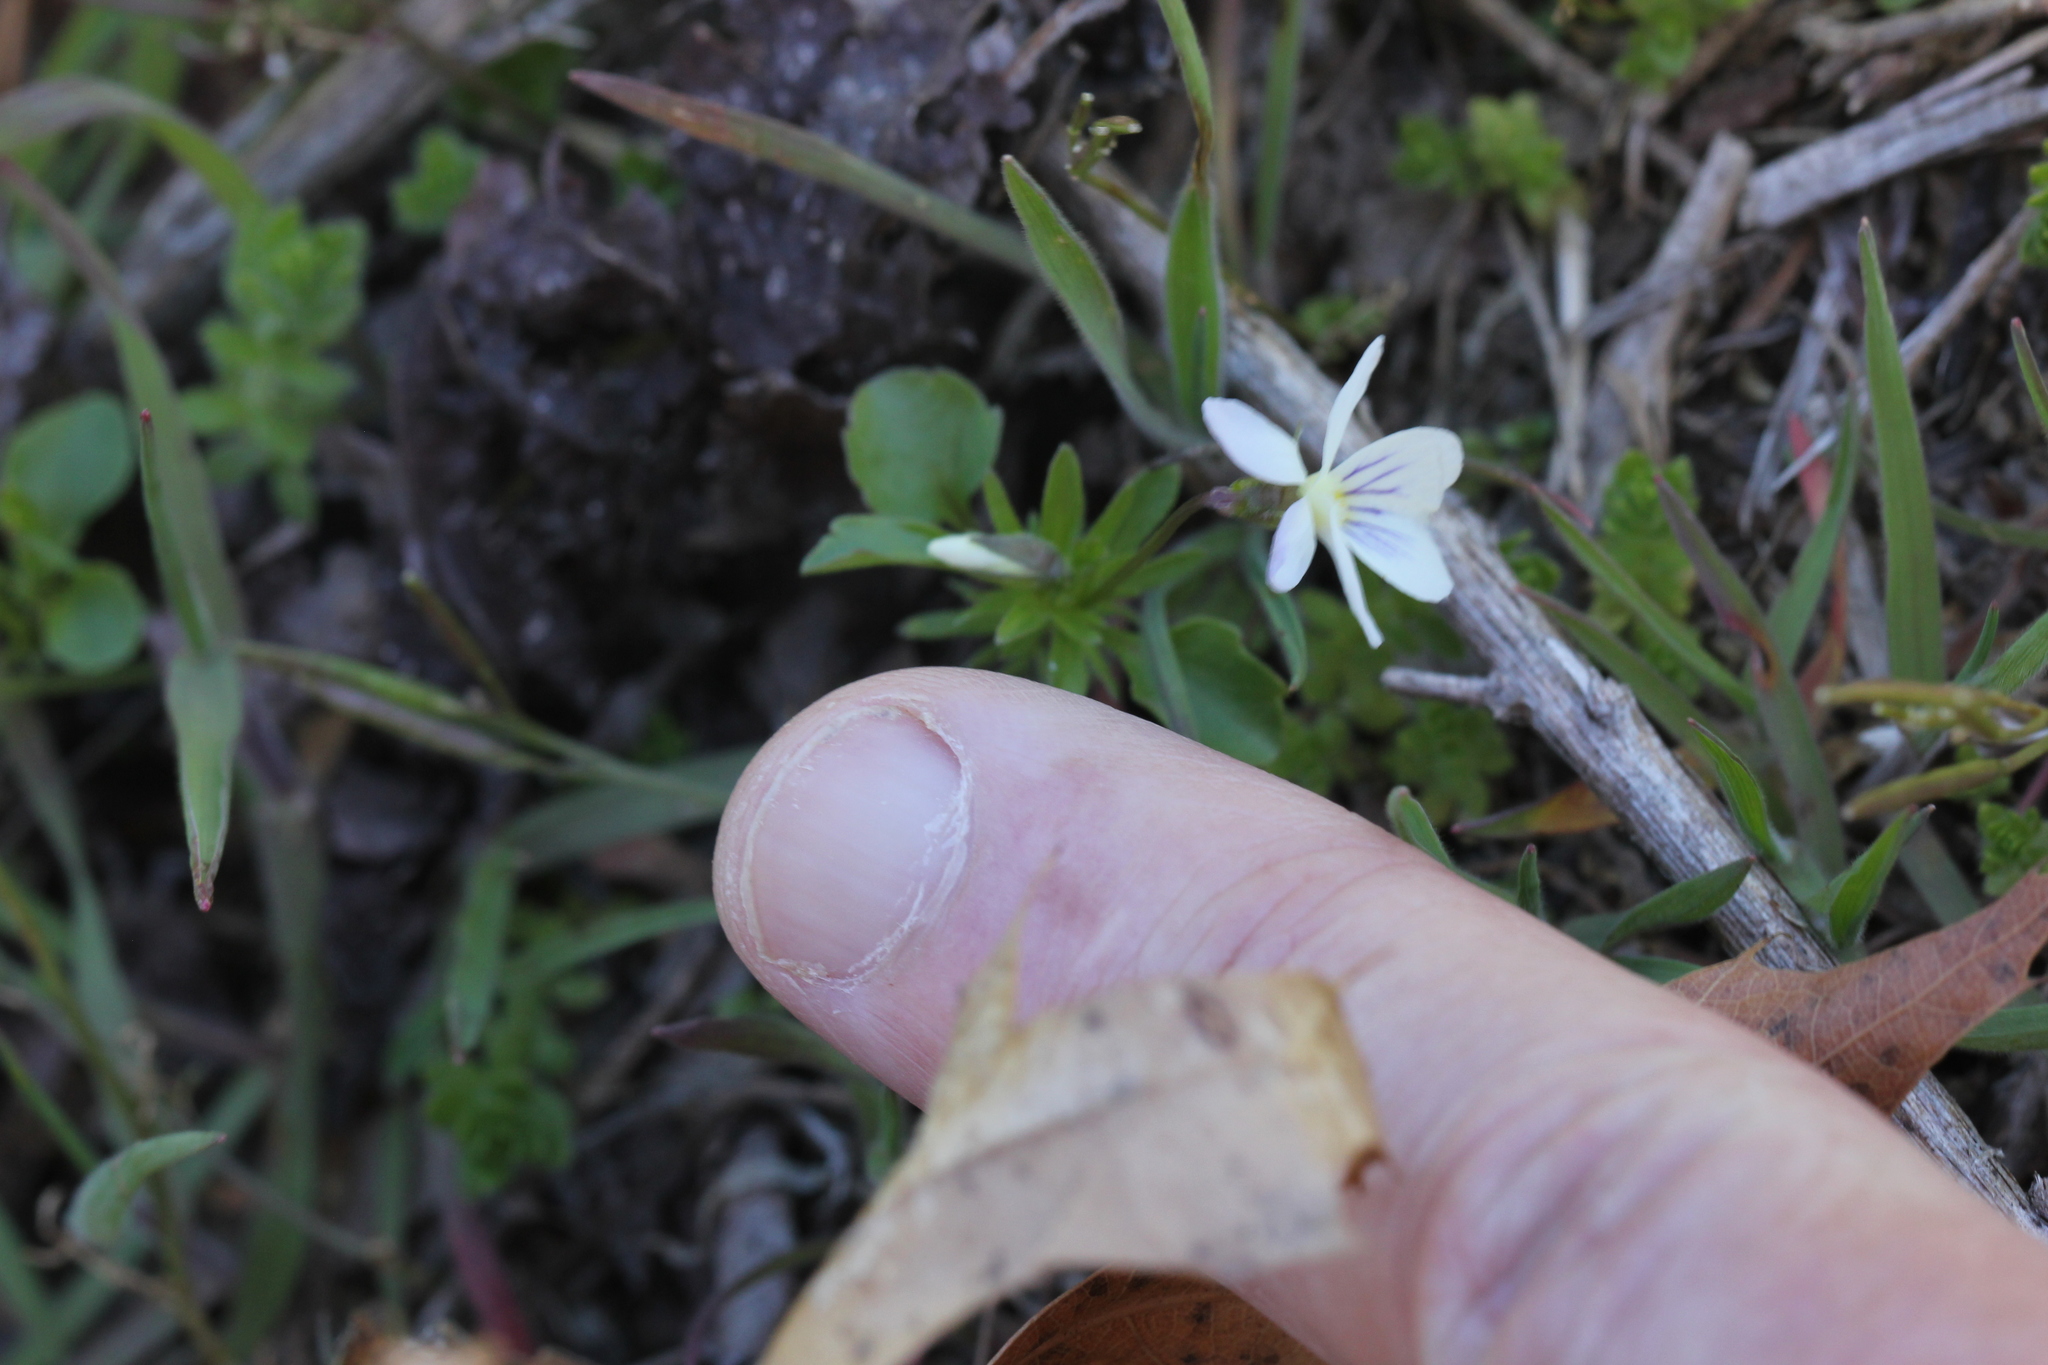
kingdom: Plantae
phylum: Tracheophyta
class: Magnoliopsida
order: Malpighiales
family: Violaceae
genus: Viola
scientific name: Viola rafinesquei
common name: American field pansy
